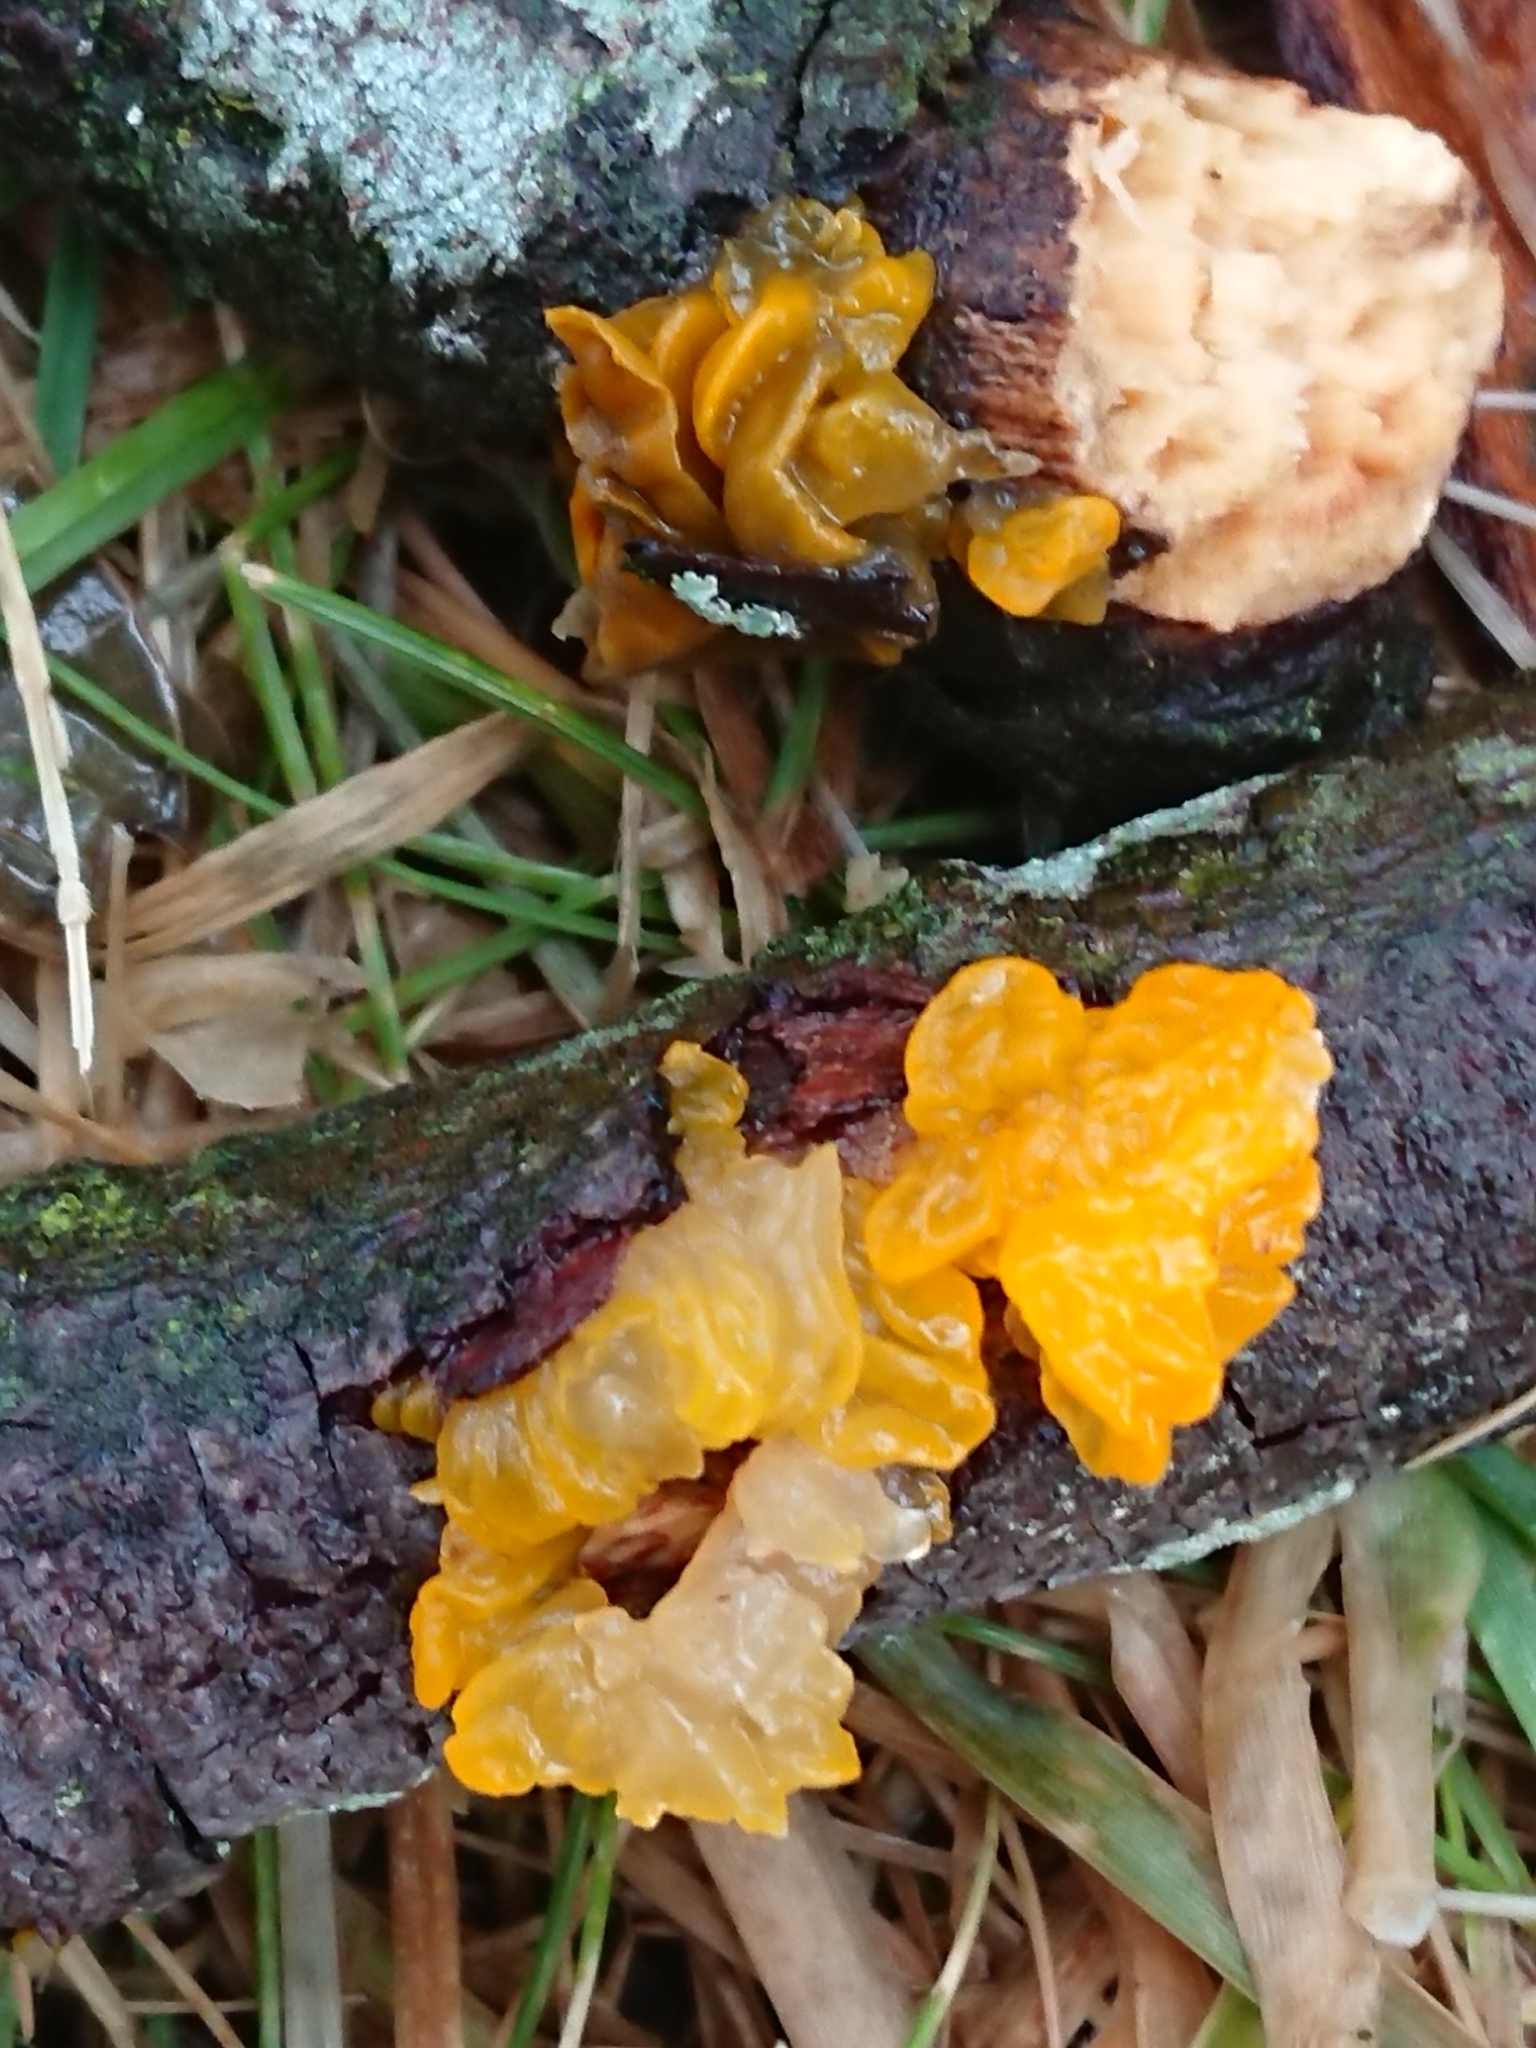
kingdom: Fungi
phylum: Basidiomycota
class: Tremellomycetes
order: Tremellales
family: Tremellaceae
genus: Tremella
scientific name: Tremella mesenterica
